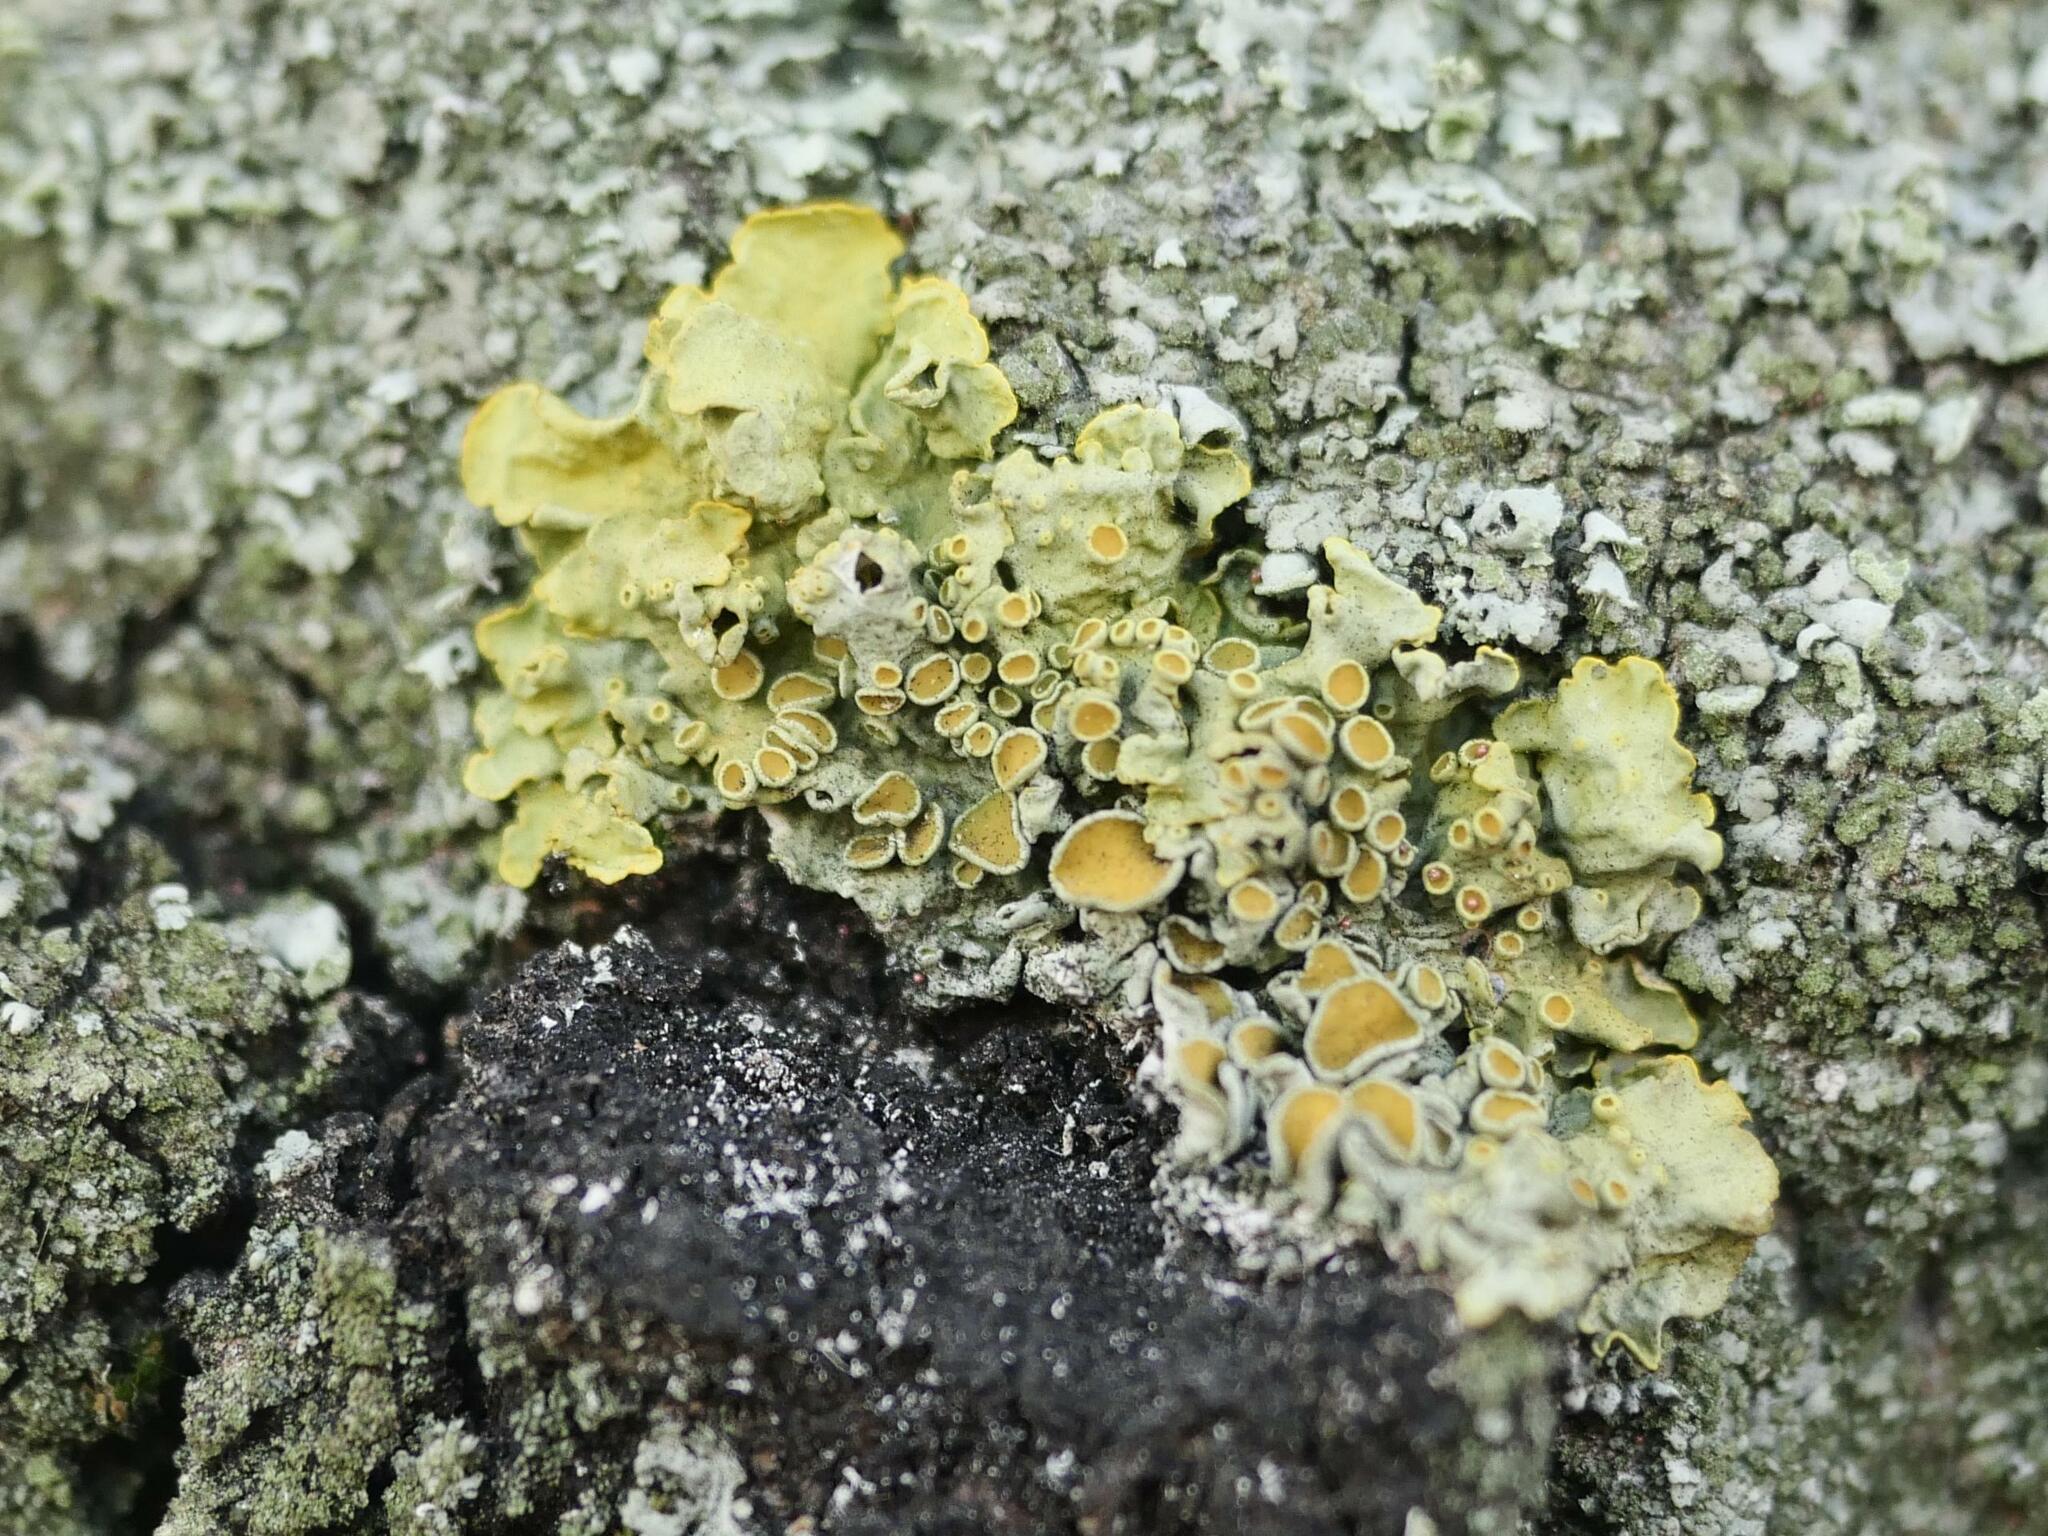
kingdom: Fungi
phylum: Ascomycota
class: Lecanoromycetes
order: Teloschistales
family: Teloschistaceae
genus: Xanthoria
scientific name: Xanthoria parietina
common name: Common orange lichen
